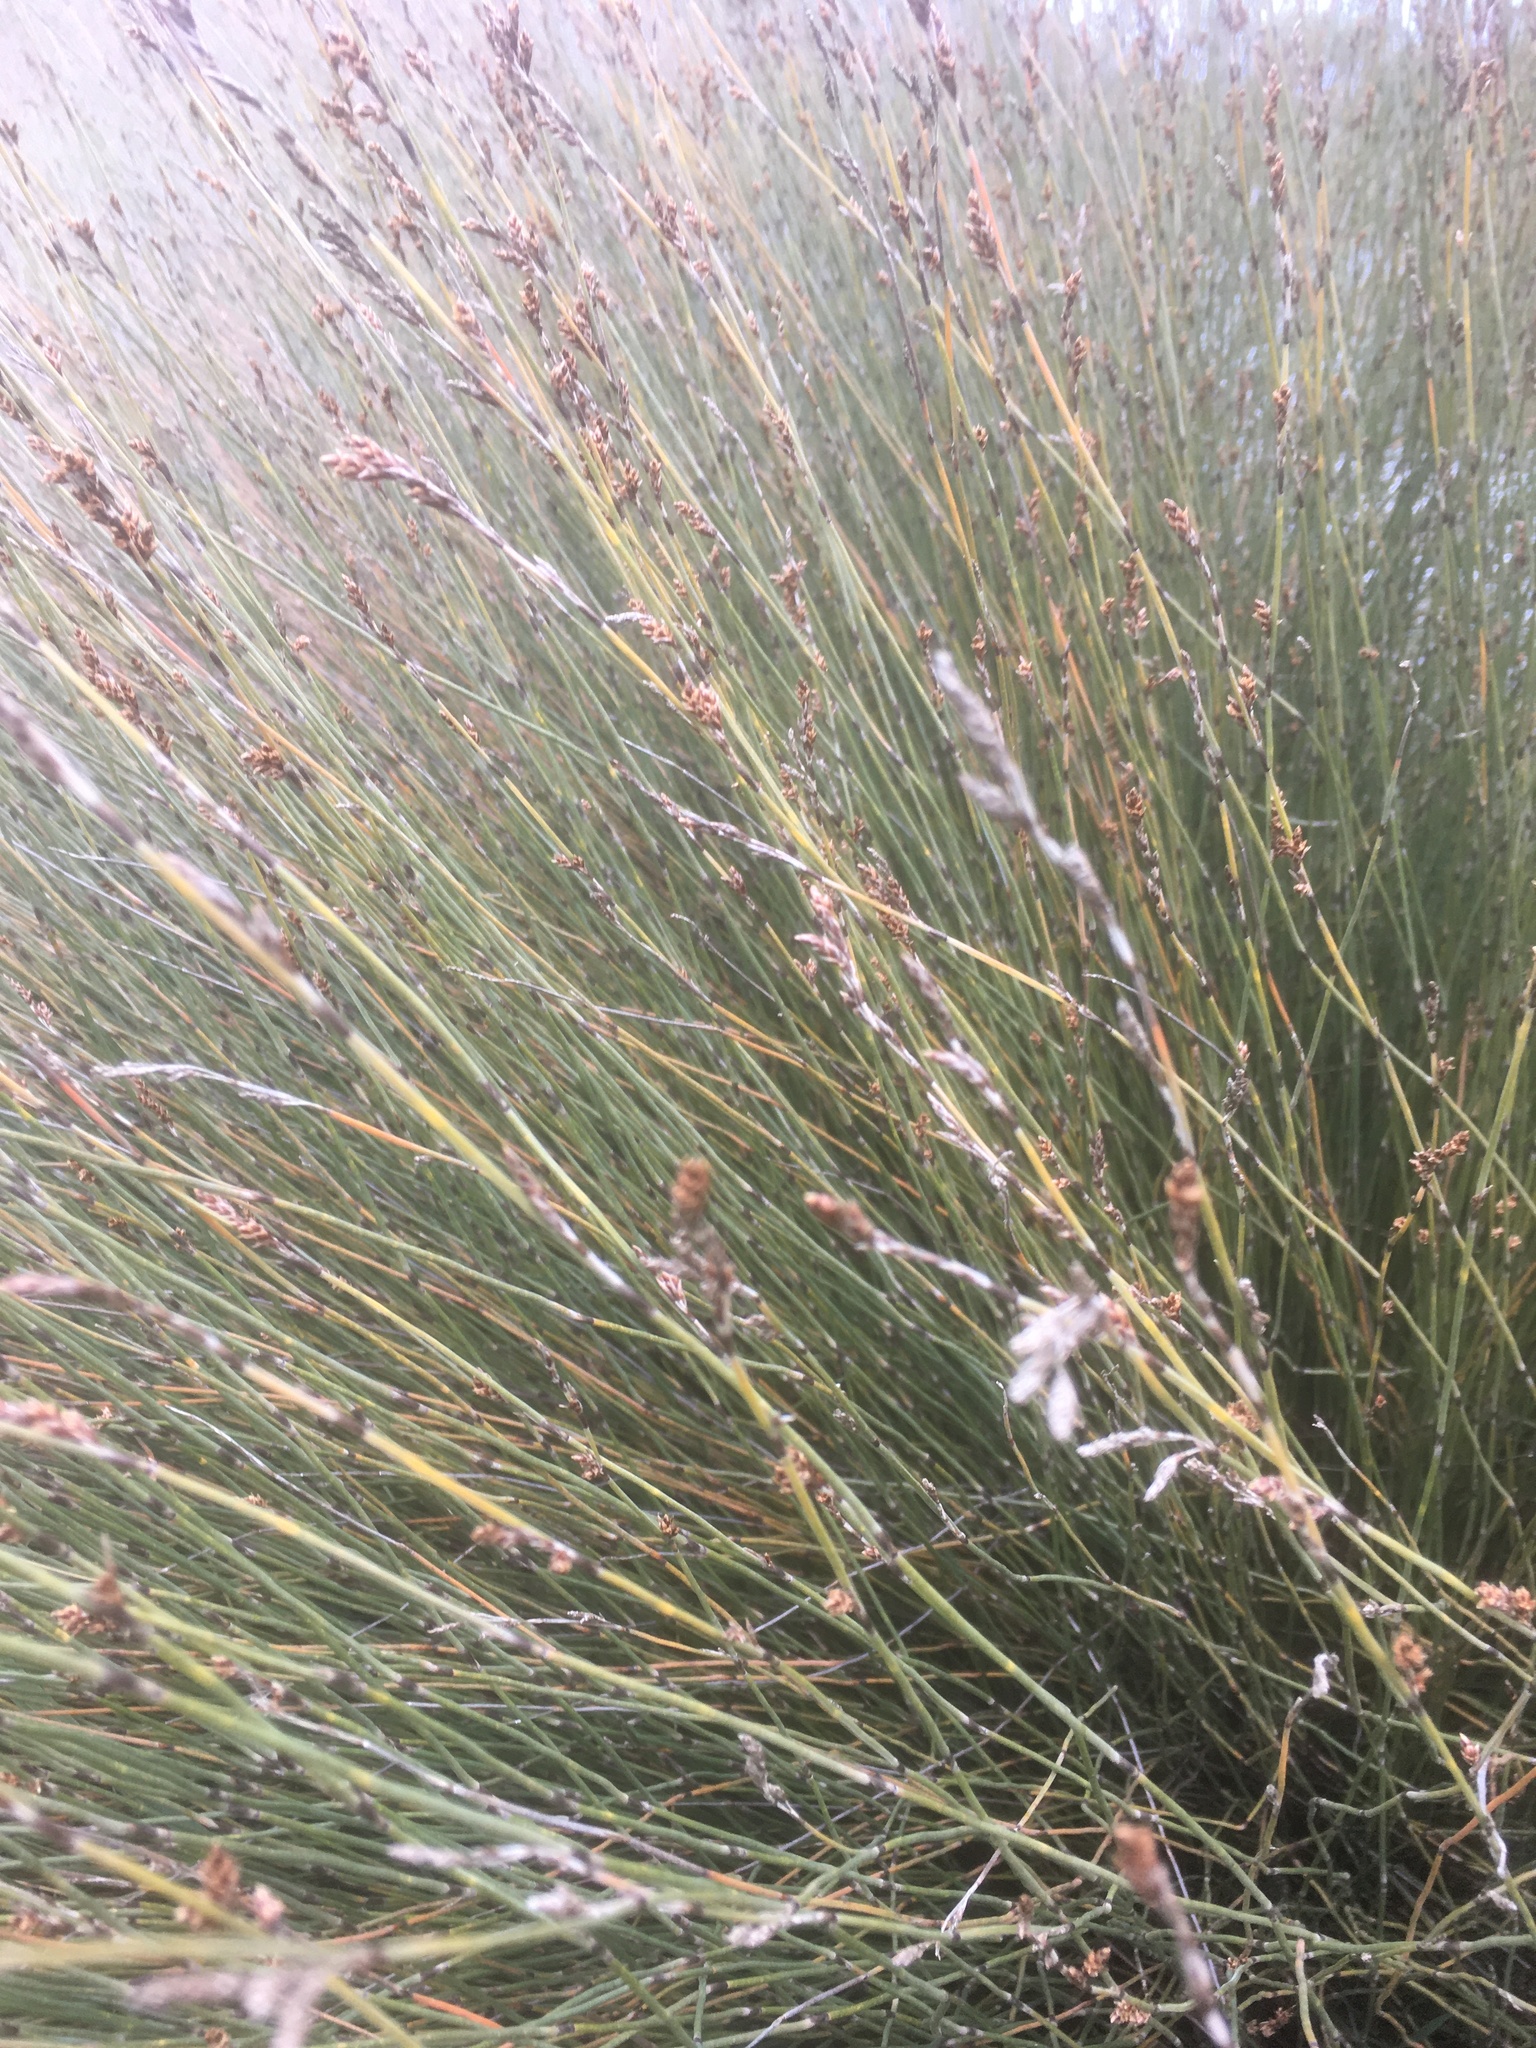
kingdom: Plantae
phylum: Tracheophyta
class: Liliopsida
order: Poales
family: Restionaceae
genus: Apodasmia
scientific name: Apodasmia similis
